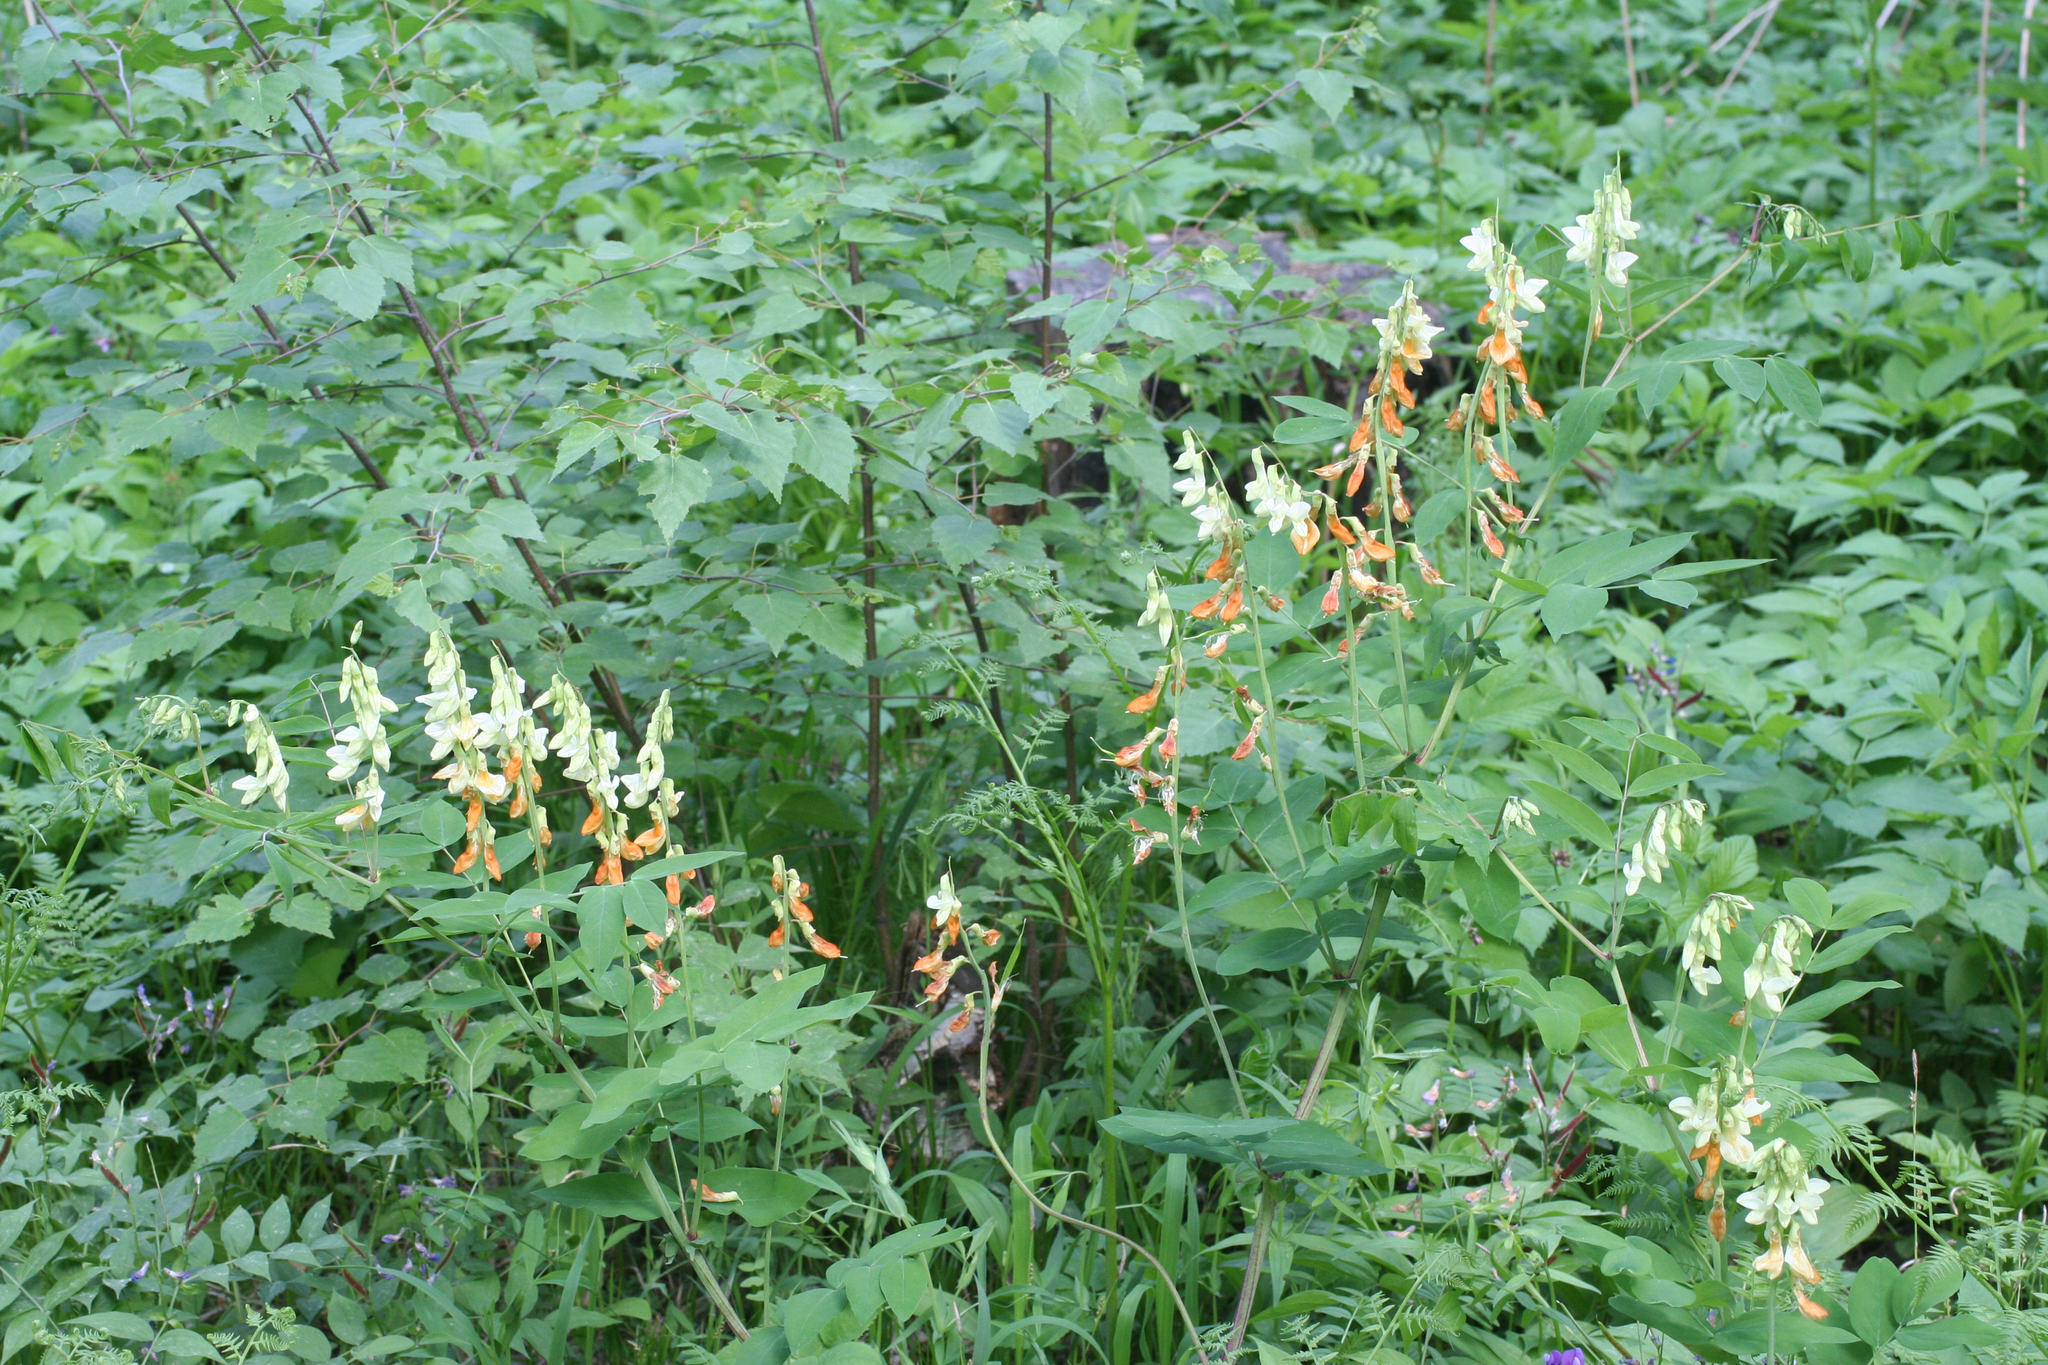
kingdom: Plantae
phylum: Tracheophyta
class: Magnoliopsida
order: Fabales
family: Fabaceae
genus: Lathyrus
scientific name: Lathyrus gmelinii
